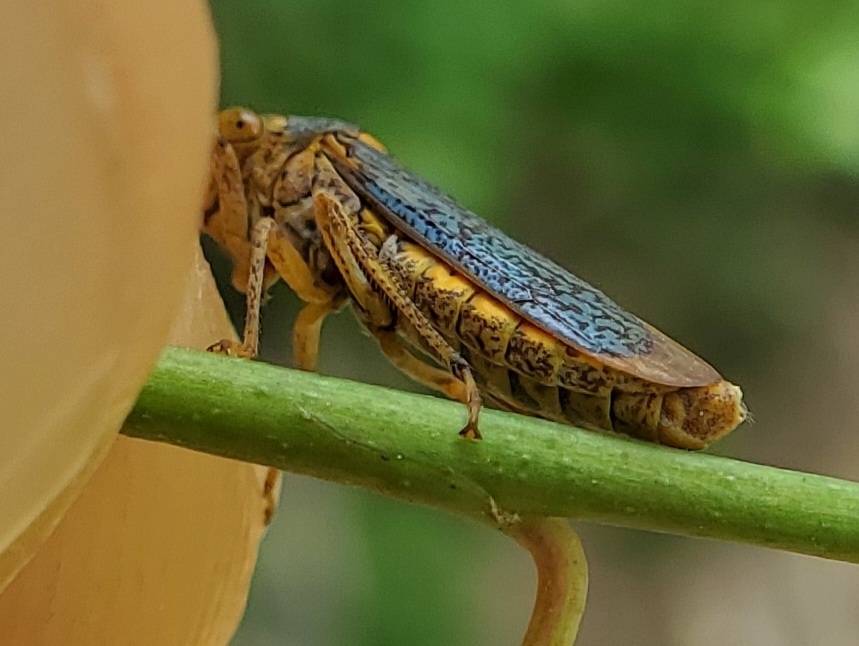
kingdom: Animalia
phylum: Arthropoda
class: Insecta
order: Hemiptera
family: Cicadellidae
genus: Oncometopia
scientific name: Oncometopia orbona
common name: Broad-headed sharpshooter
